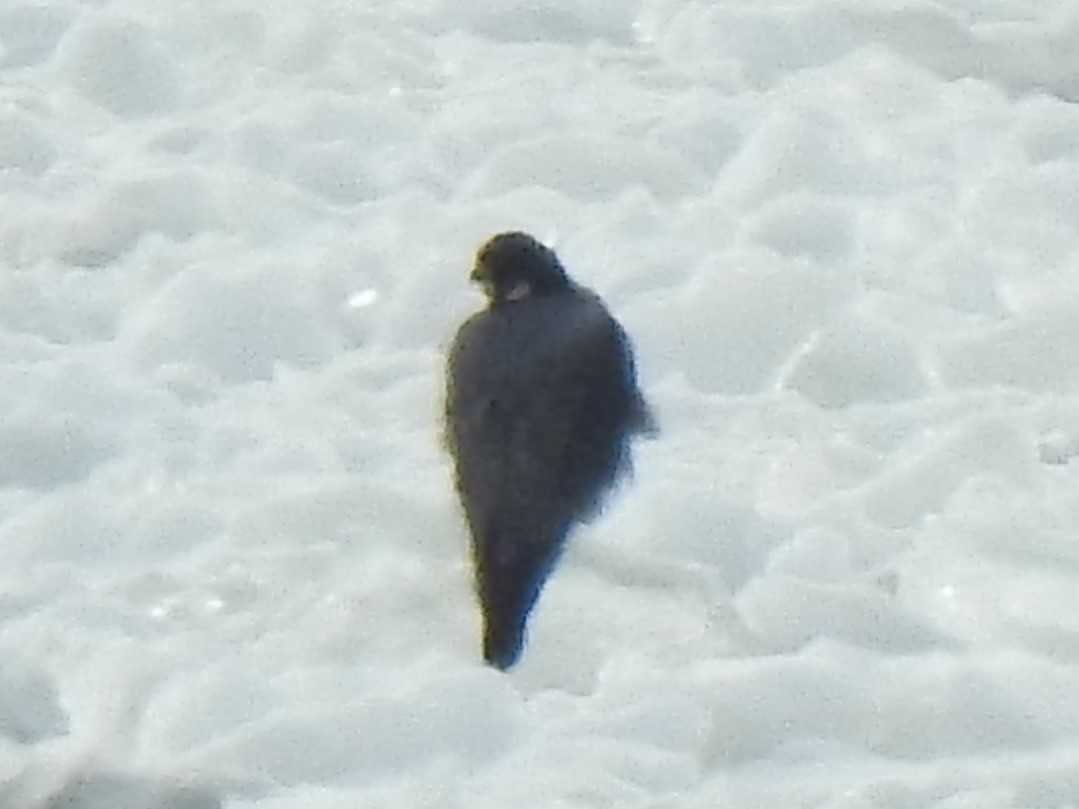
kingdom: Animalia
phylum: Chordata
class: Aves
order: Falconiformes
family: Falconidae
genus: Falco
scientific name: Falco peregrinus
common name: Peregrine falcon
